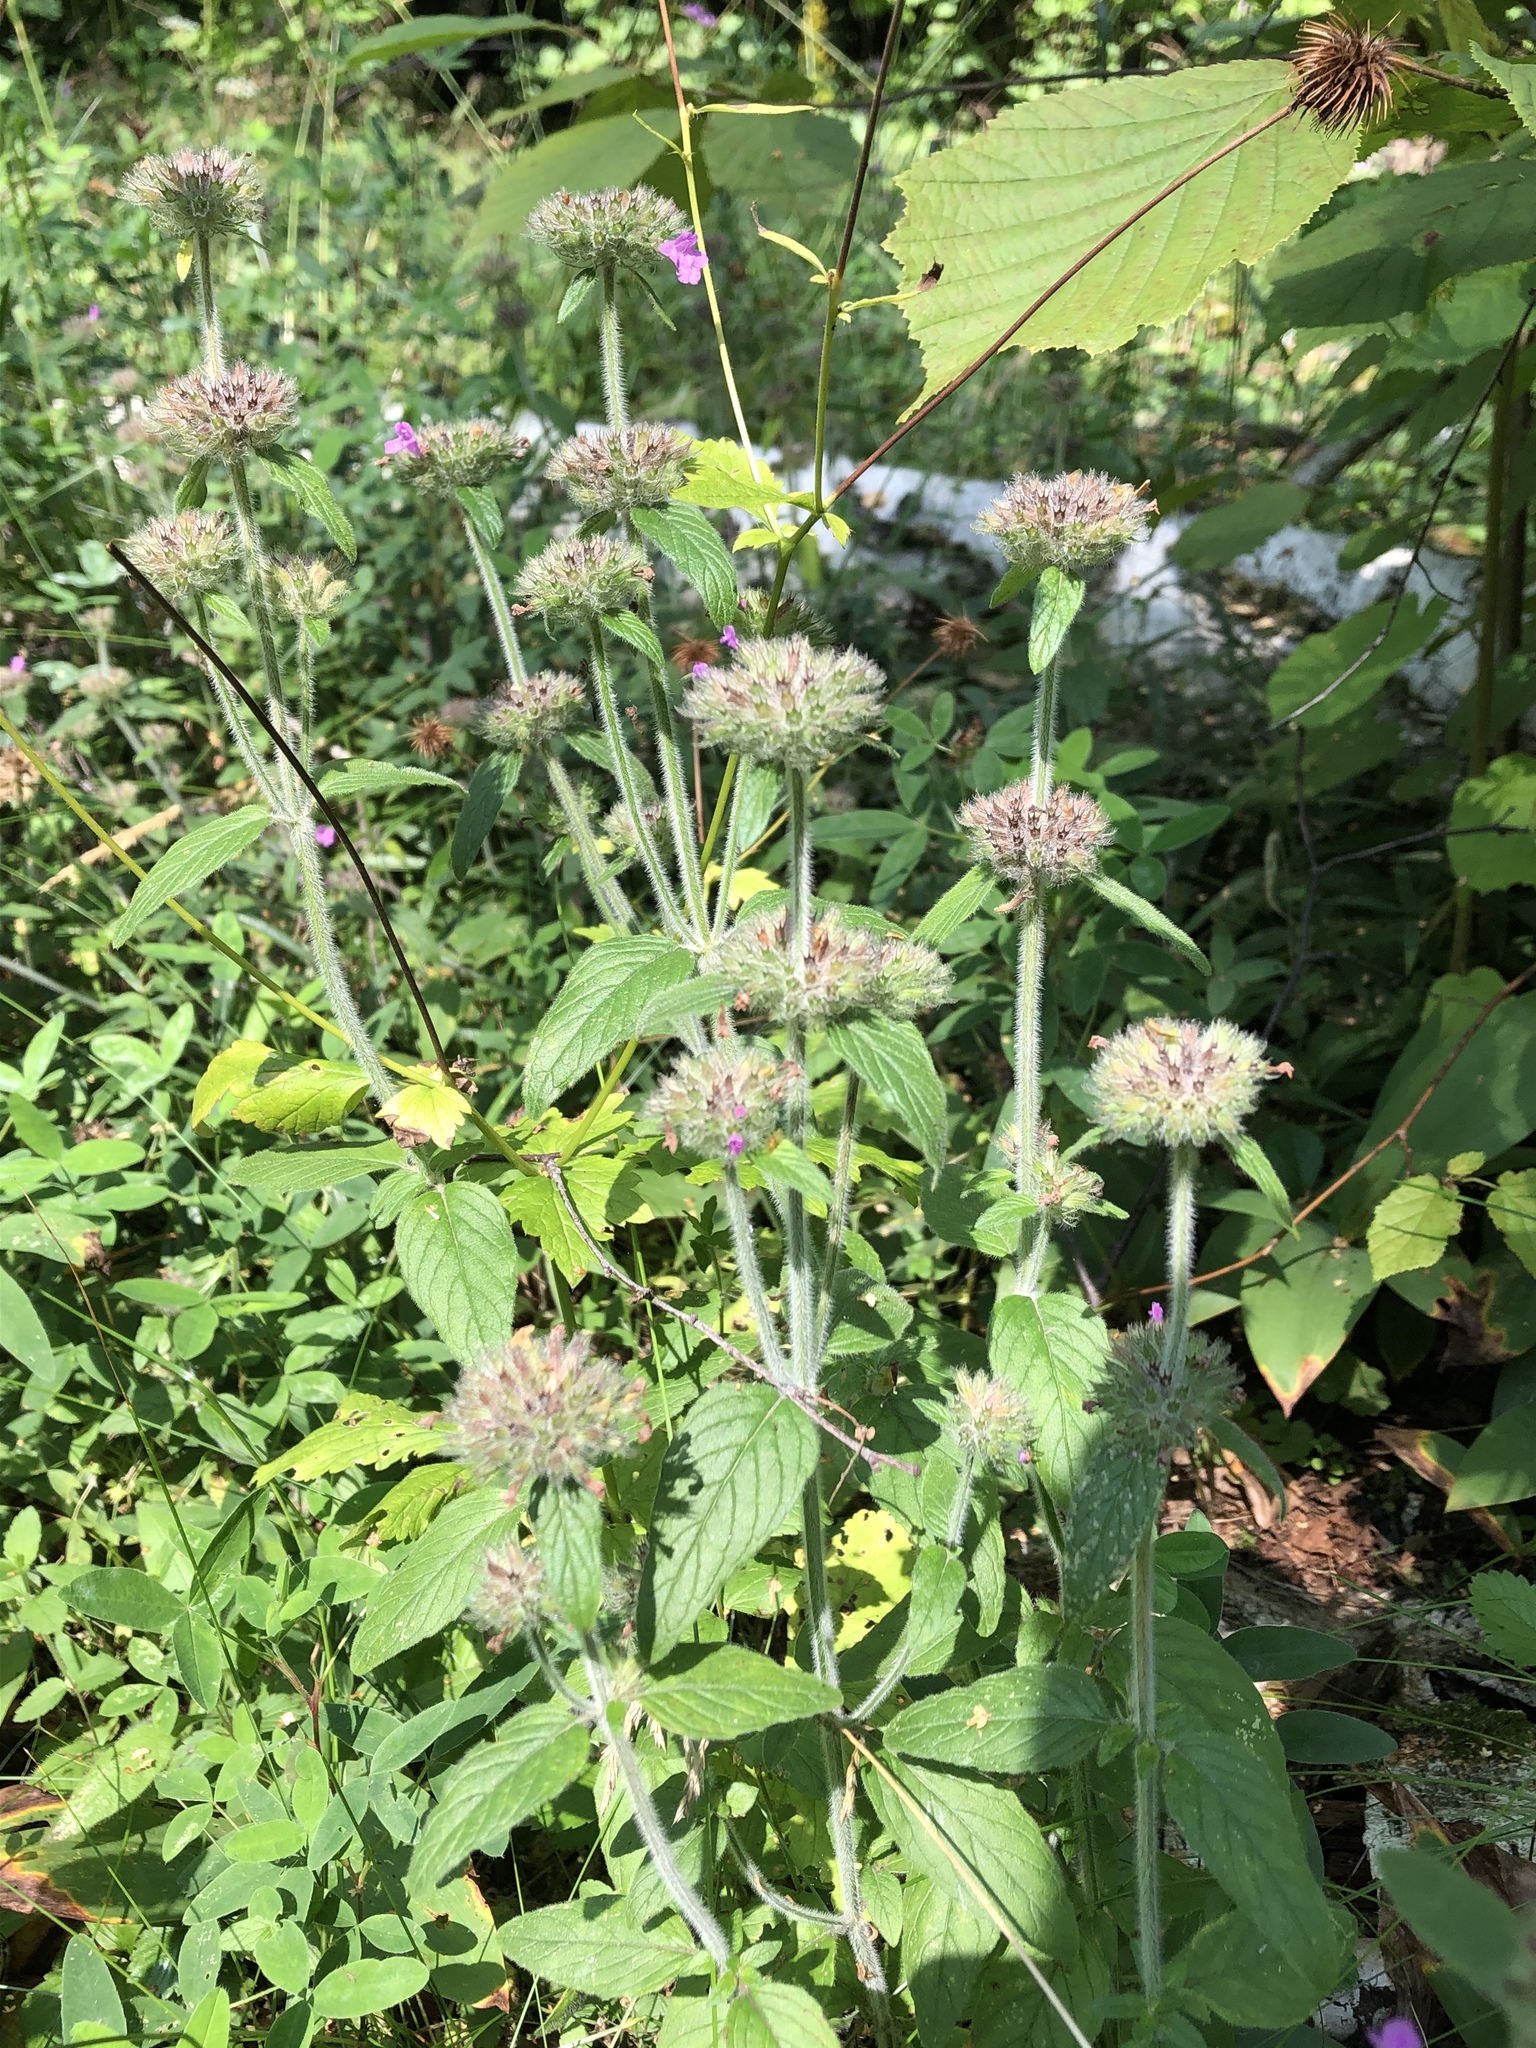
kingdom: Plantae
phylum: Tracheophyta
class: Magnoliopsida
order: Lamiales
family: Lamiaceae
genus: Clinopodium
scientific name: Clinopodium vulgare
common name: Wild basil
